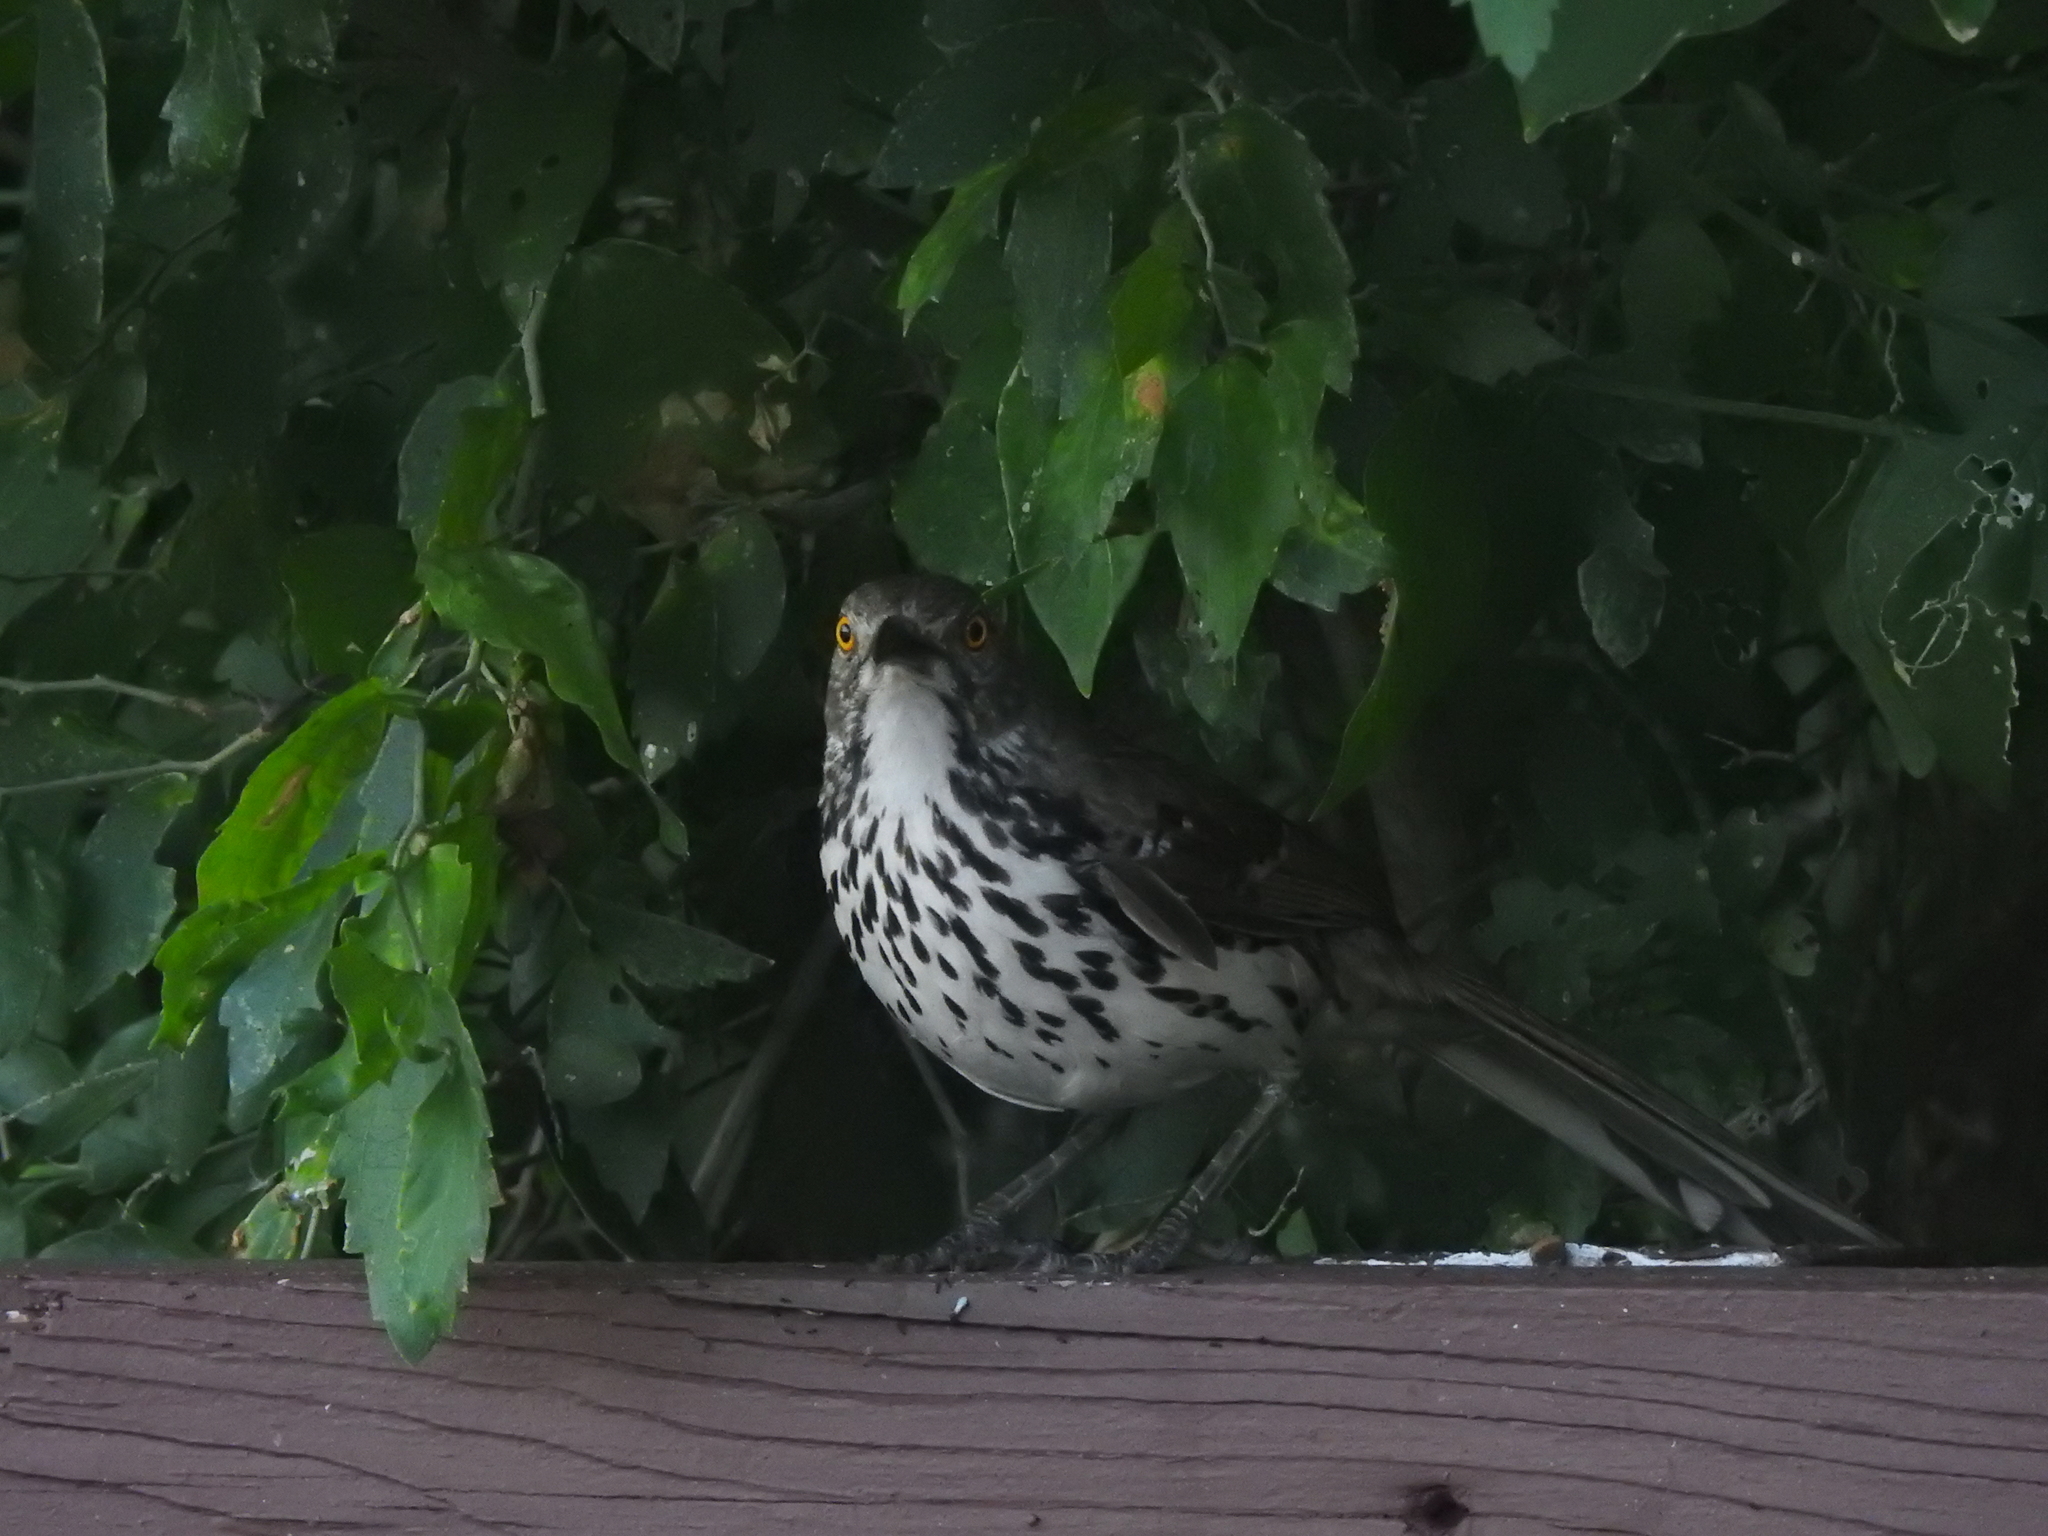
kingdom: Animalia
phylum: Chordata
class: Aves
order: Passeriformes
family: Mimidae
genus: Toxostoma
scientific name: Toxostoma longirostre
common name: Long-billed thrasher
